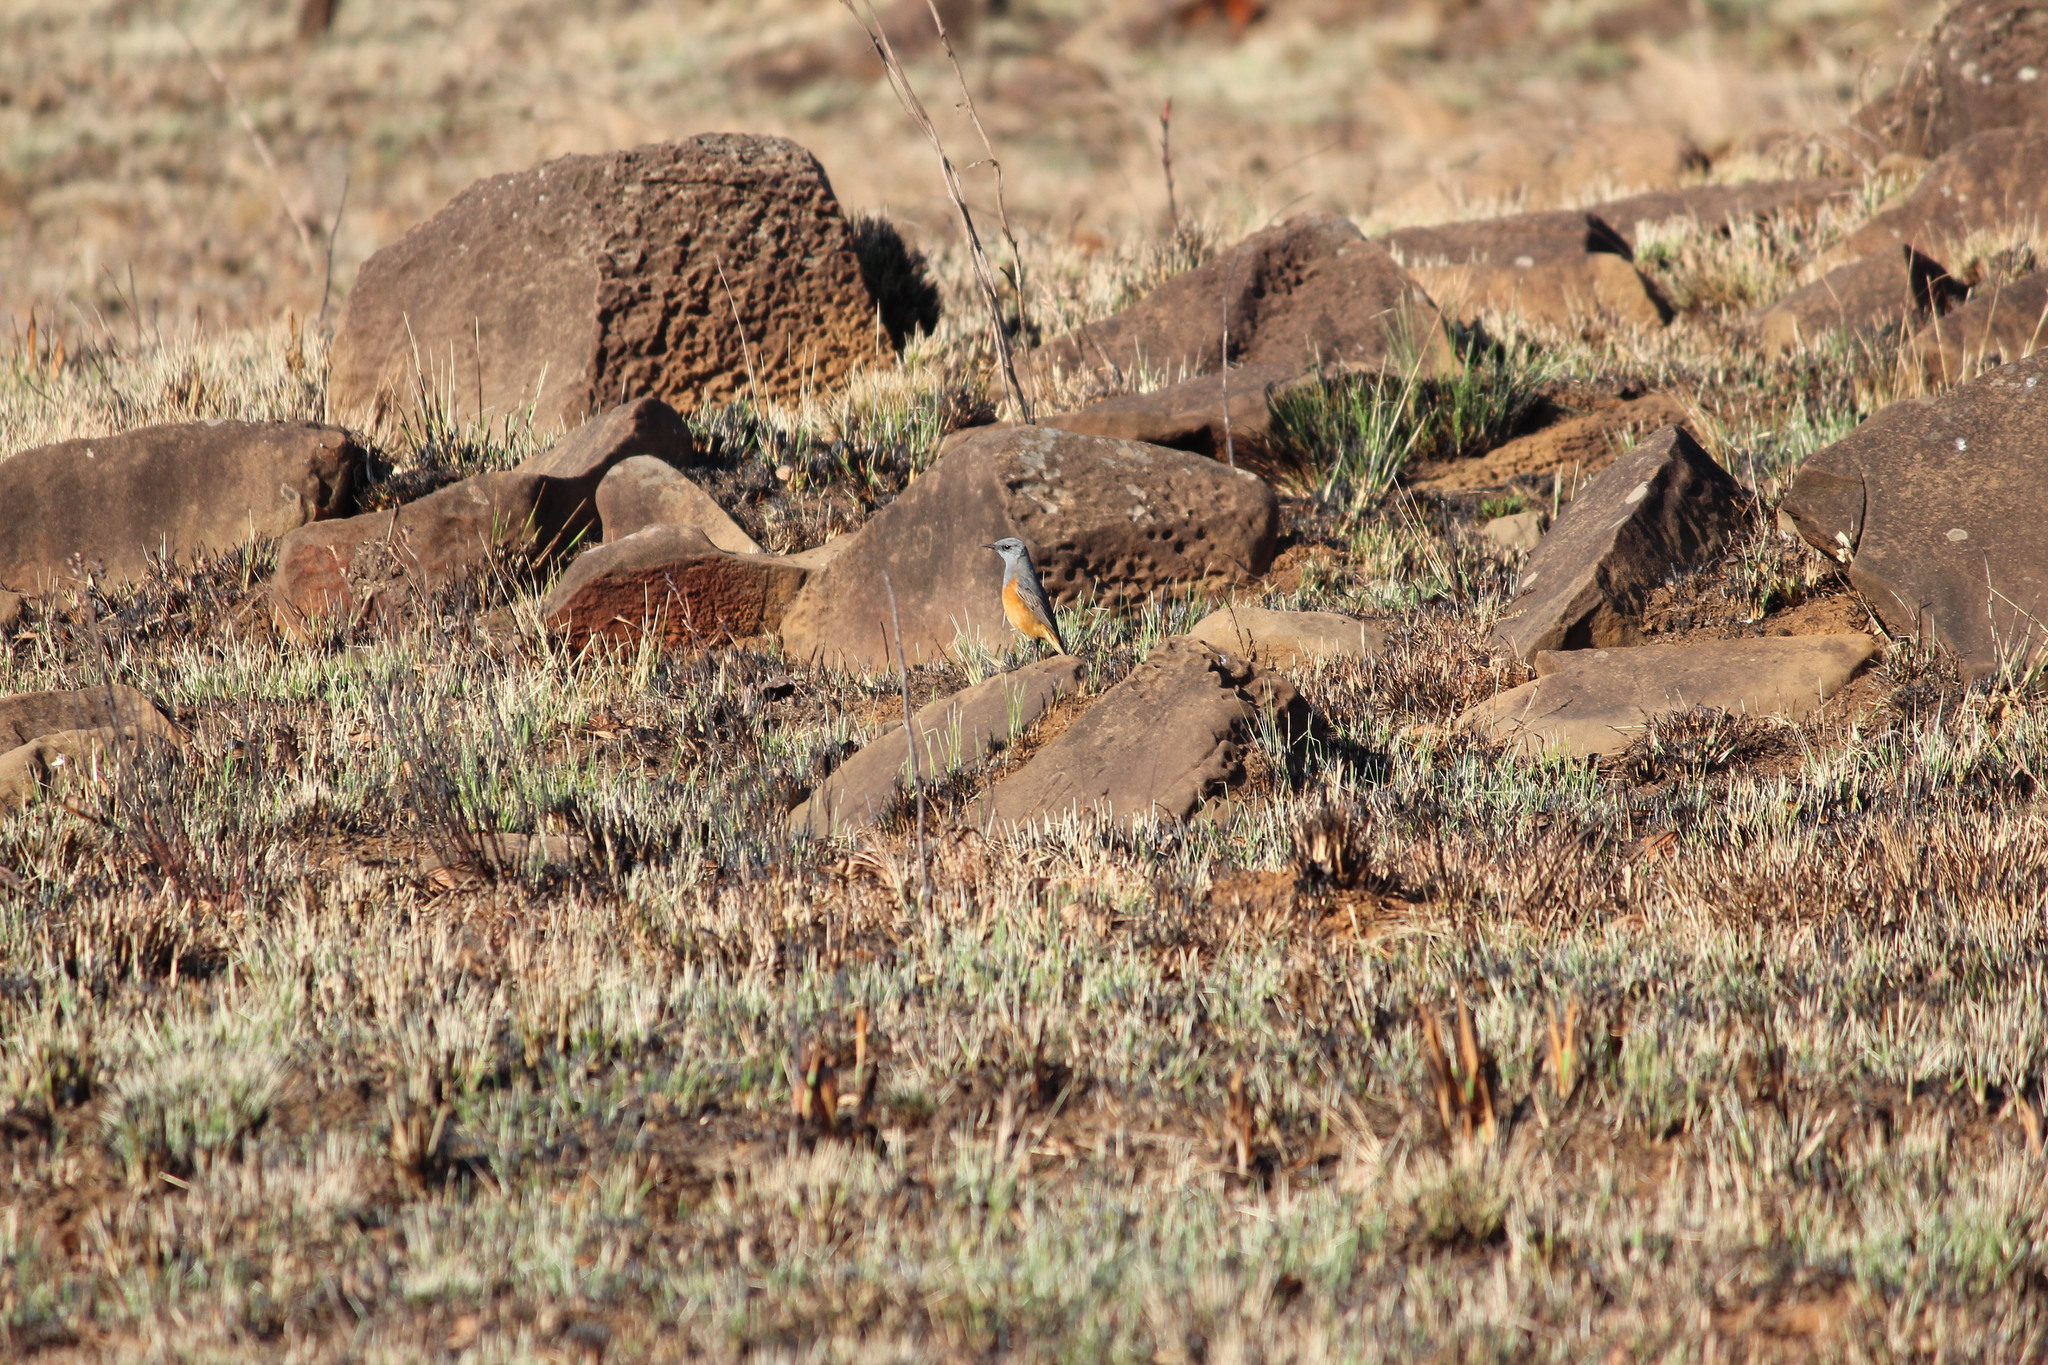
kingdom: Animalia
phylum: Chordata
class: Aves
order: Passeriformes
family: Muscicapidae
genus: Monticola
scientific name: Monticola explorator
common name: Sentinel rock thrush
